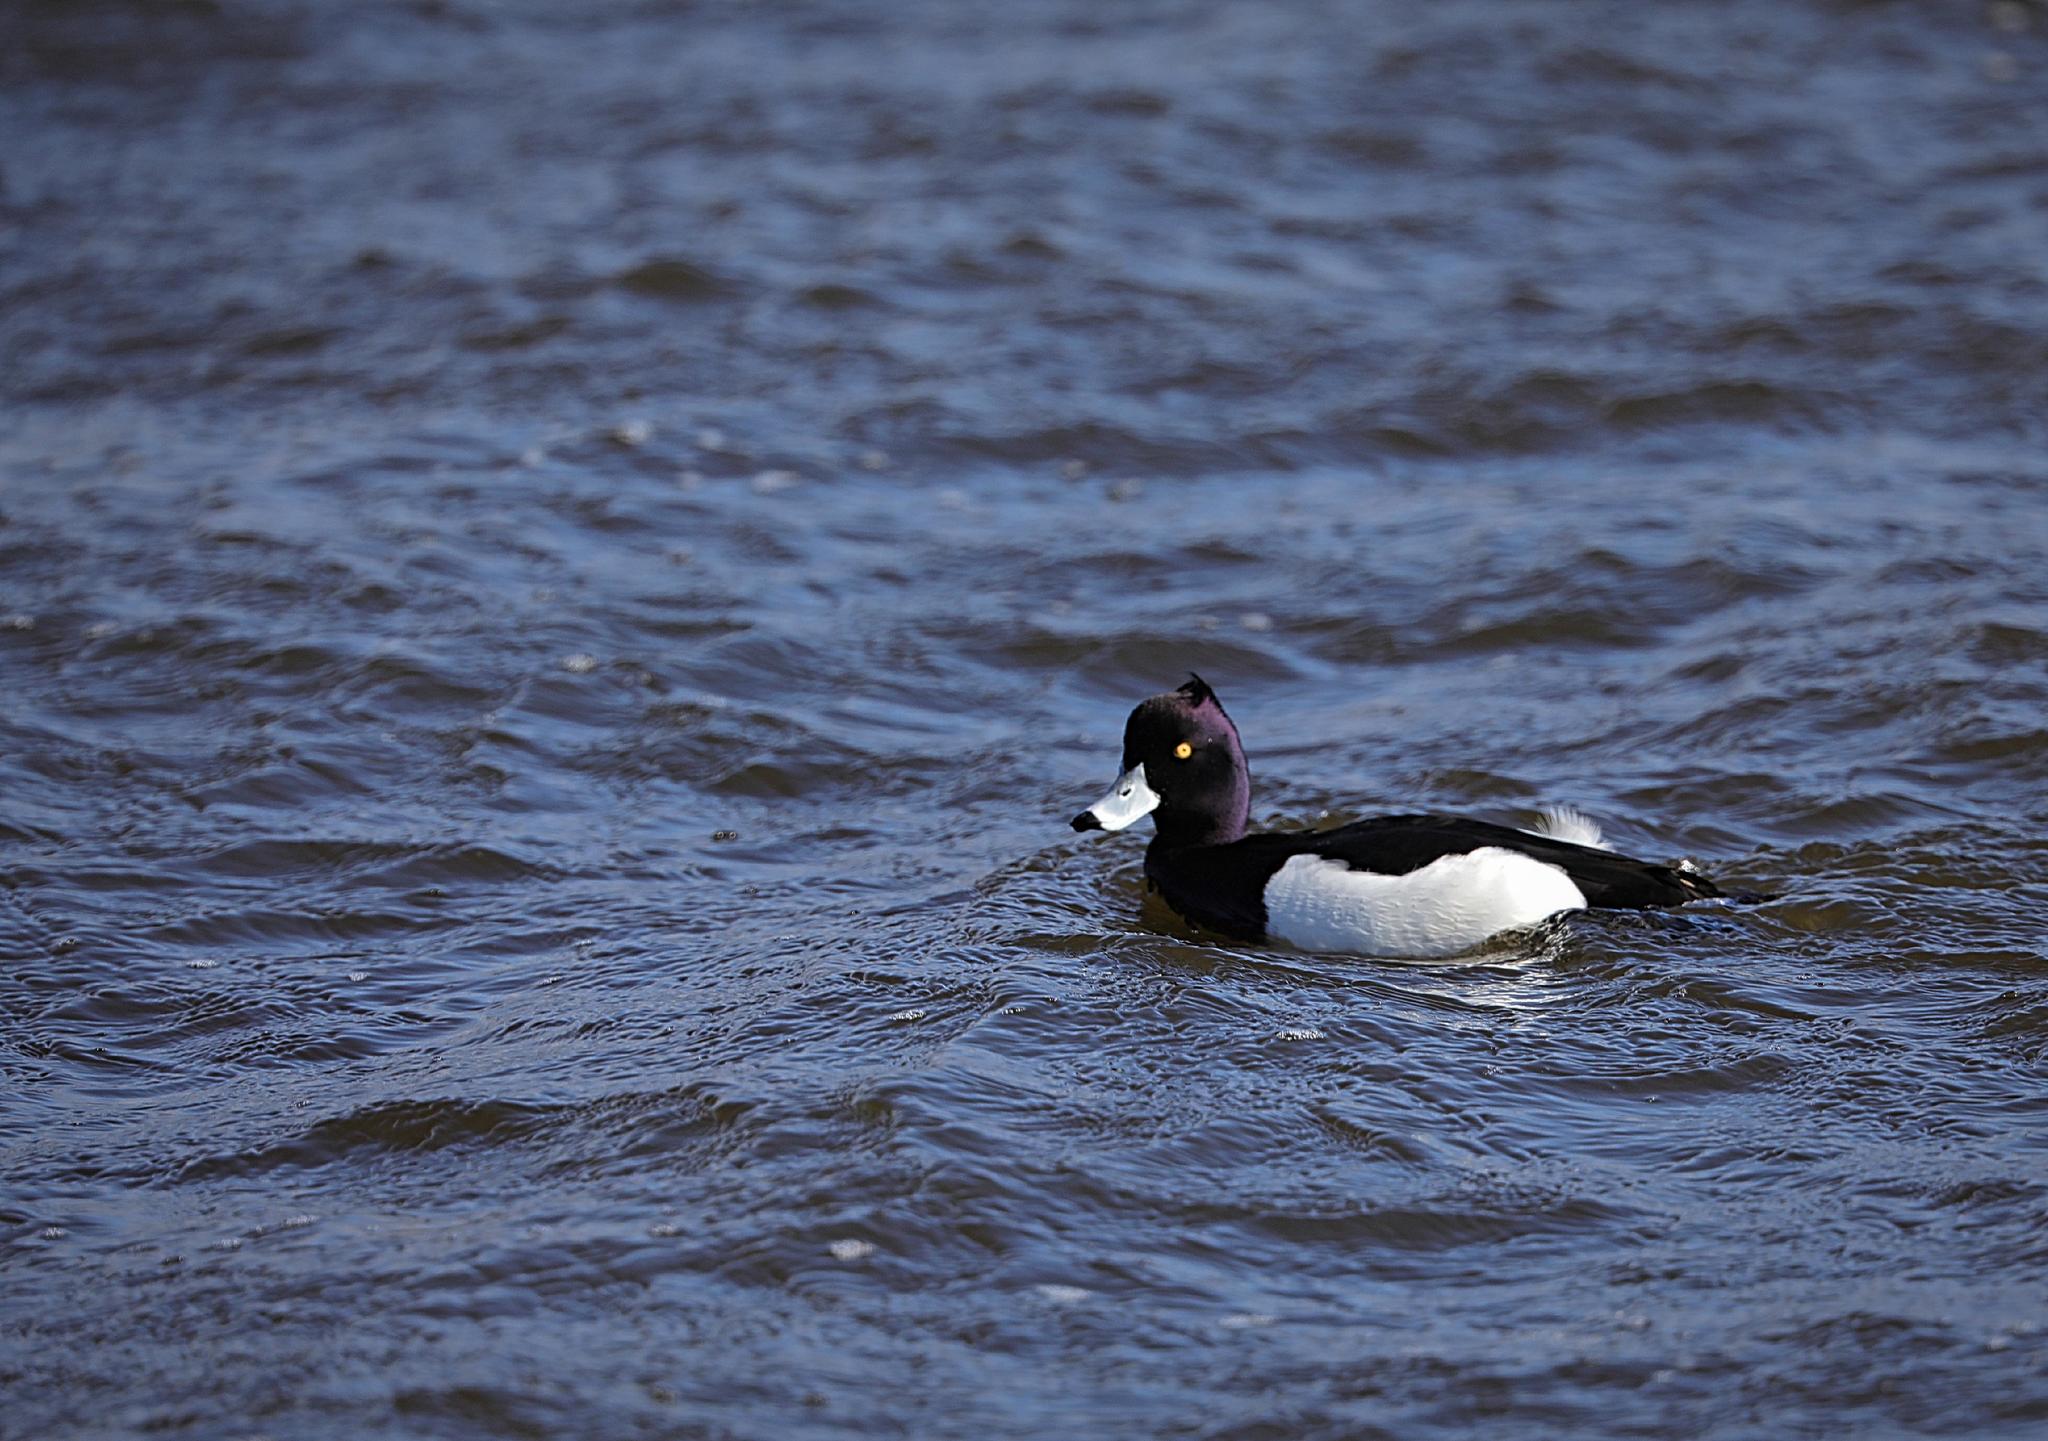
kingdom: Animalia
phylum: Chordata
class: Aves
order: Anseriformes
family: Anatidae
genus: Aythya
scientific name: Aythya fuligula
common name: Tufted duck
